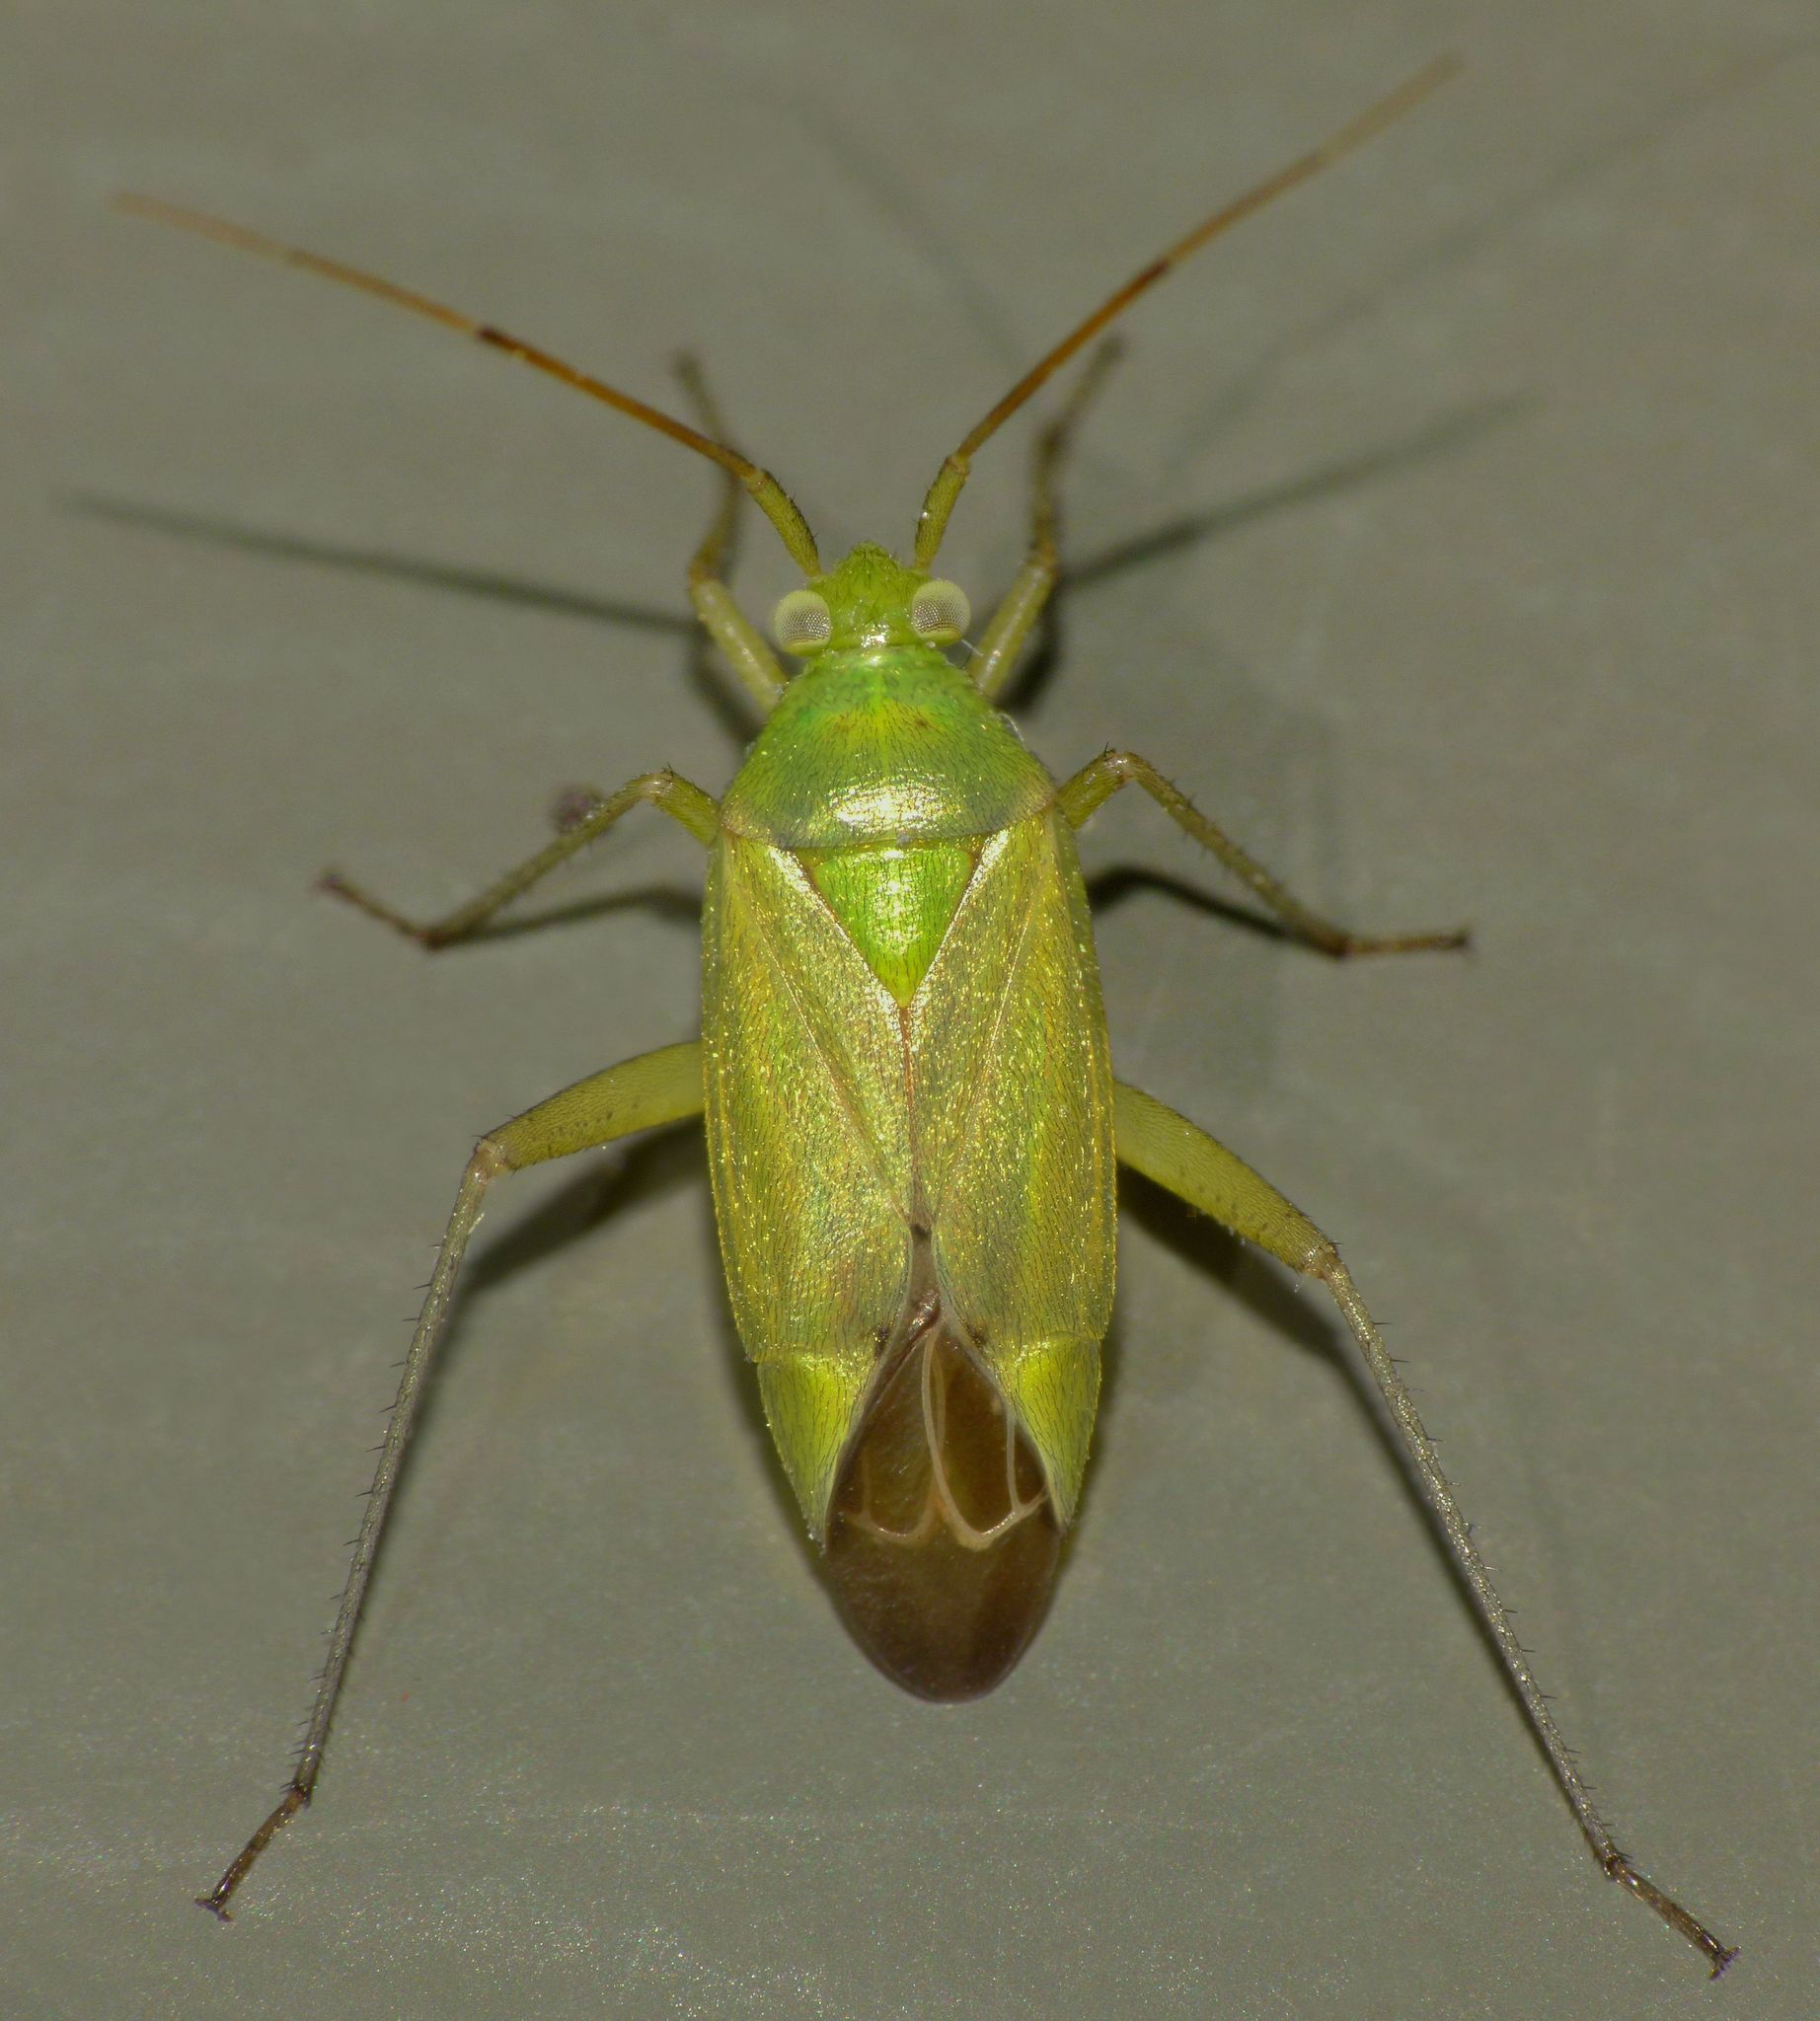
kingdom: Animalia
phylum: Arthropoda
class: Insecta
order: Hemiptera
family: Miridae
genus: Closterotomus
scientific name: Closterotomus norvegicus
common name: Plant bug
